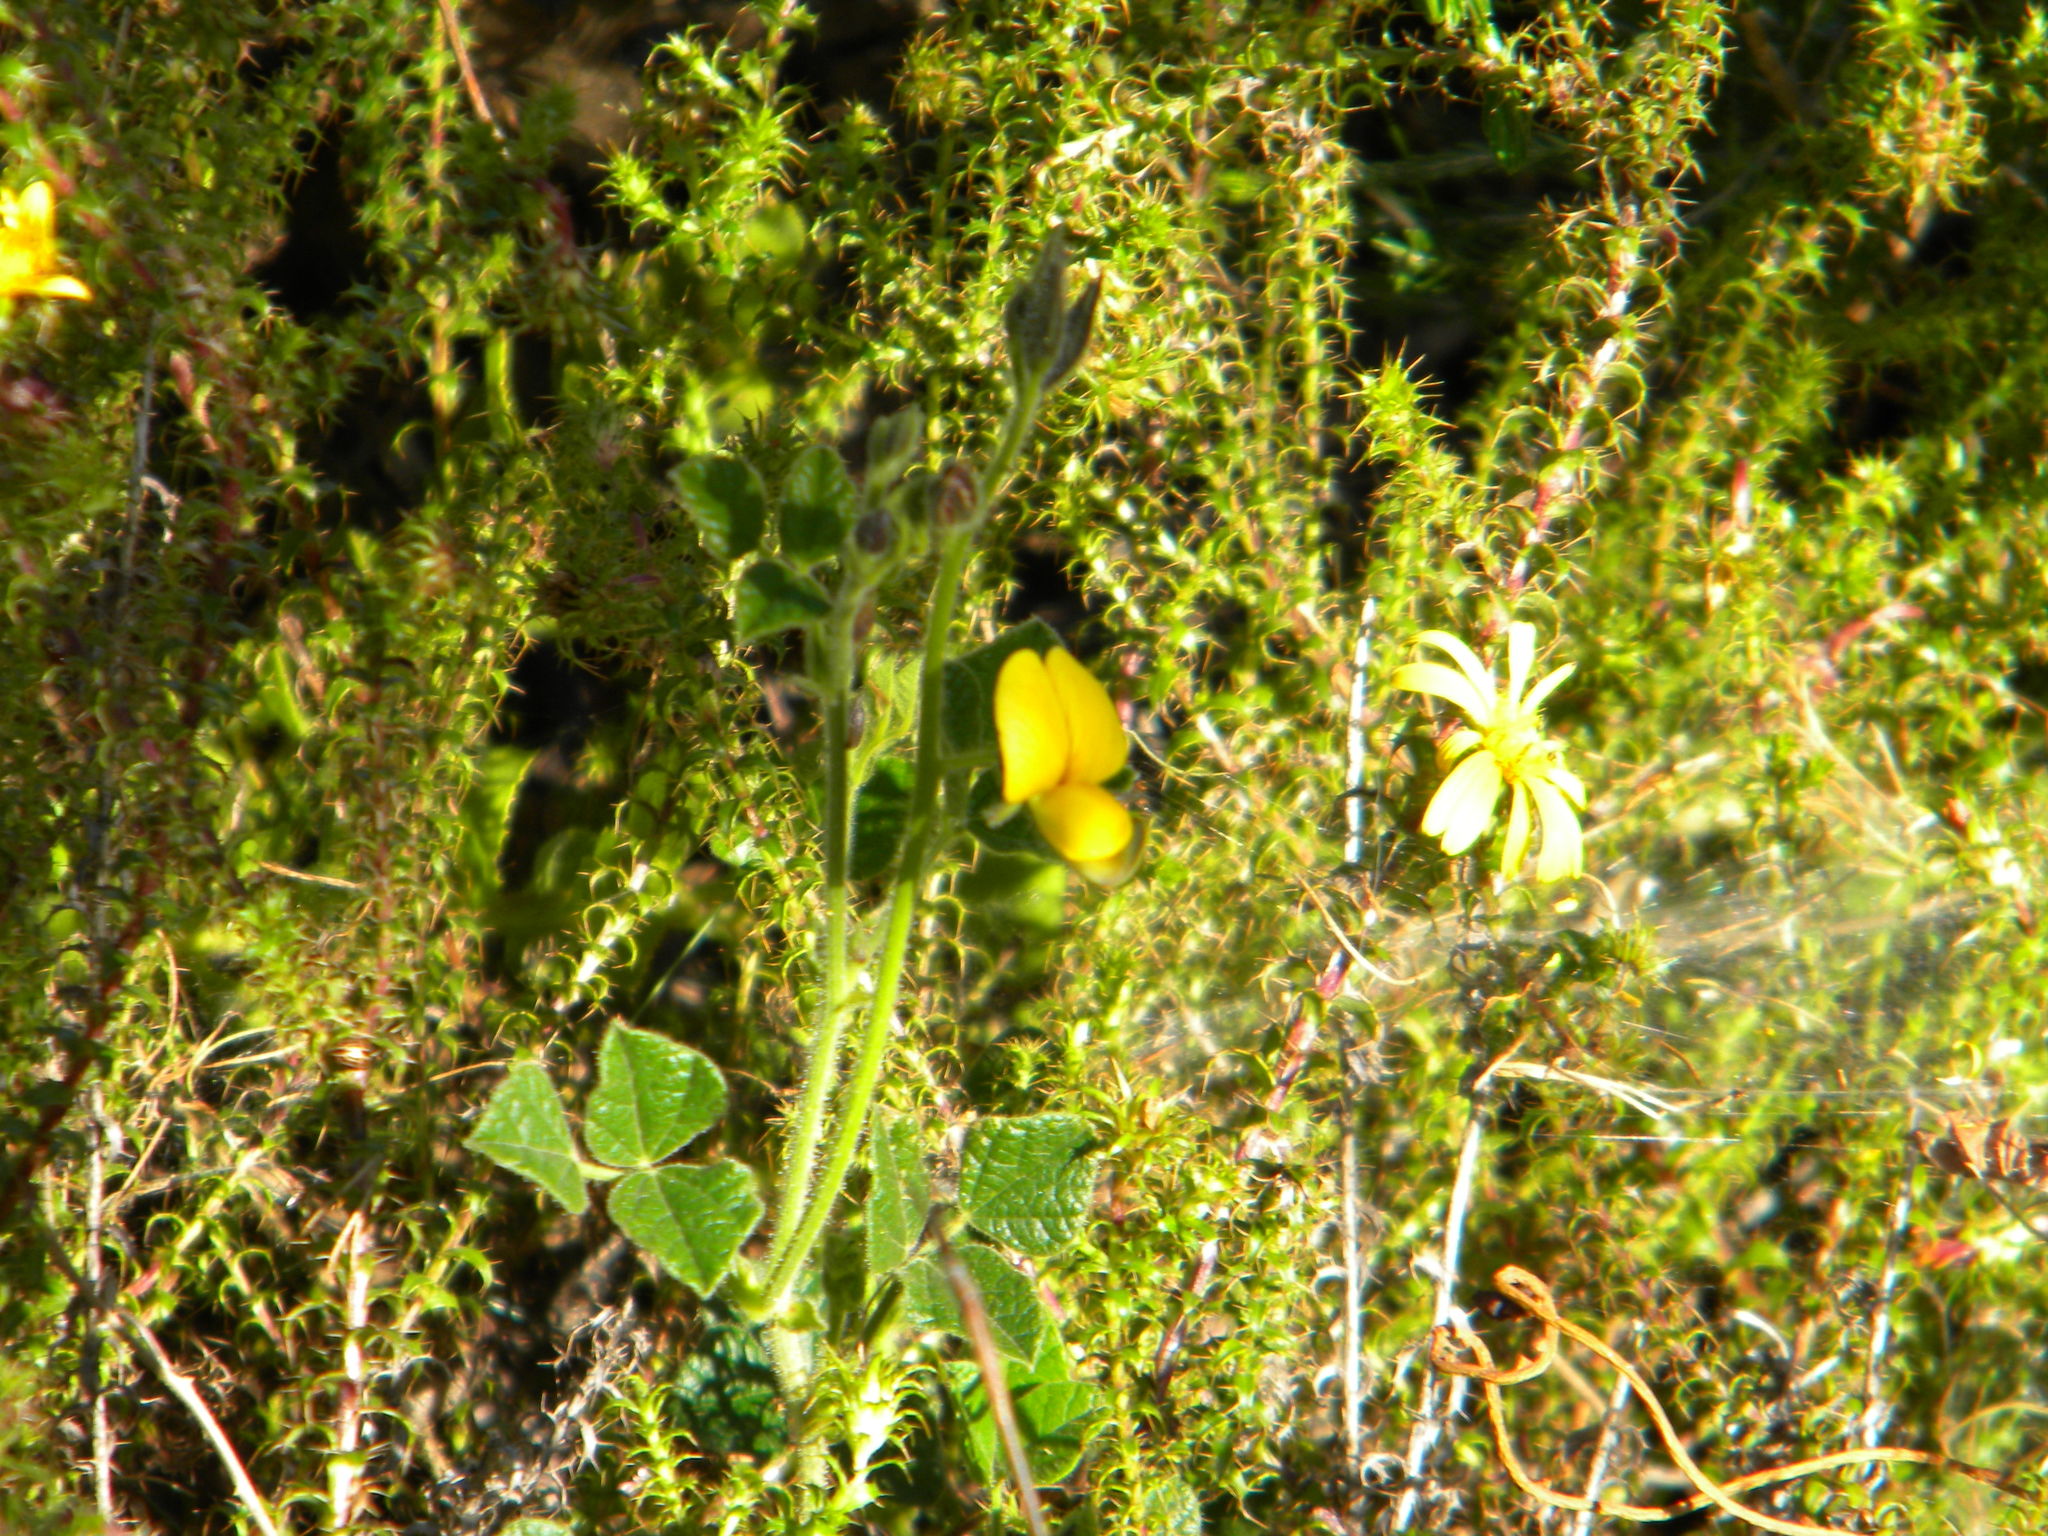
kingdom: Plantae
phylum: Tracheophyta
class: Magnoliopsida
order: Fabales
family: Fabaceae
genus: Bolusafra
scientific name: Bolusafra bituminosa
